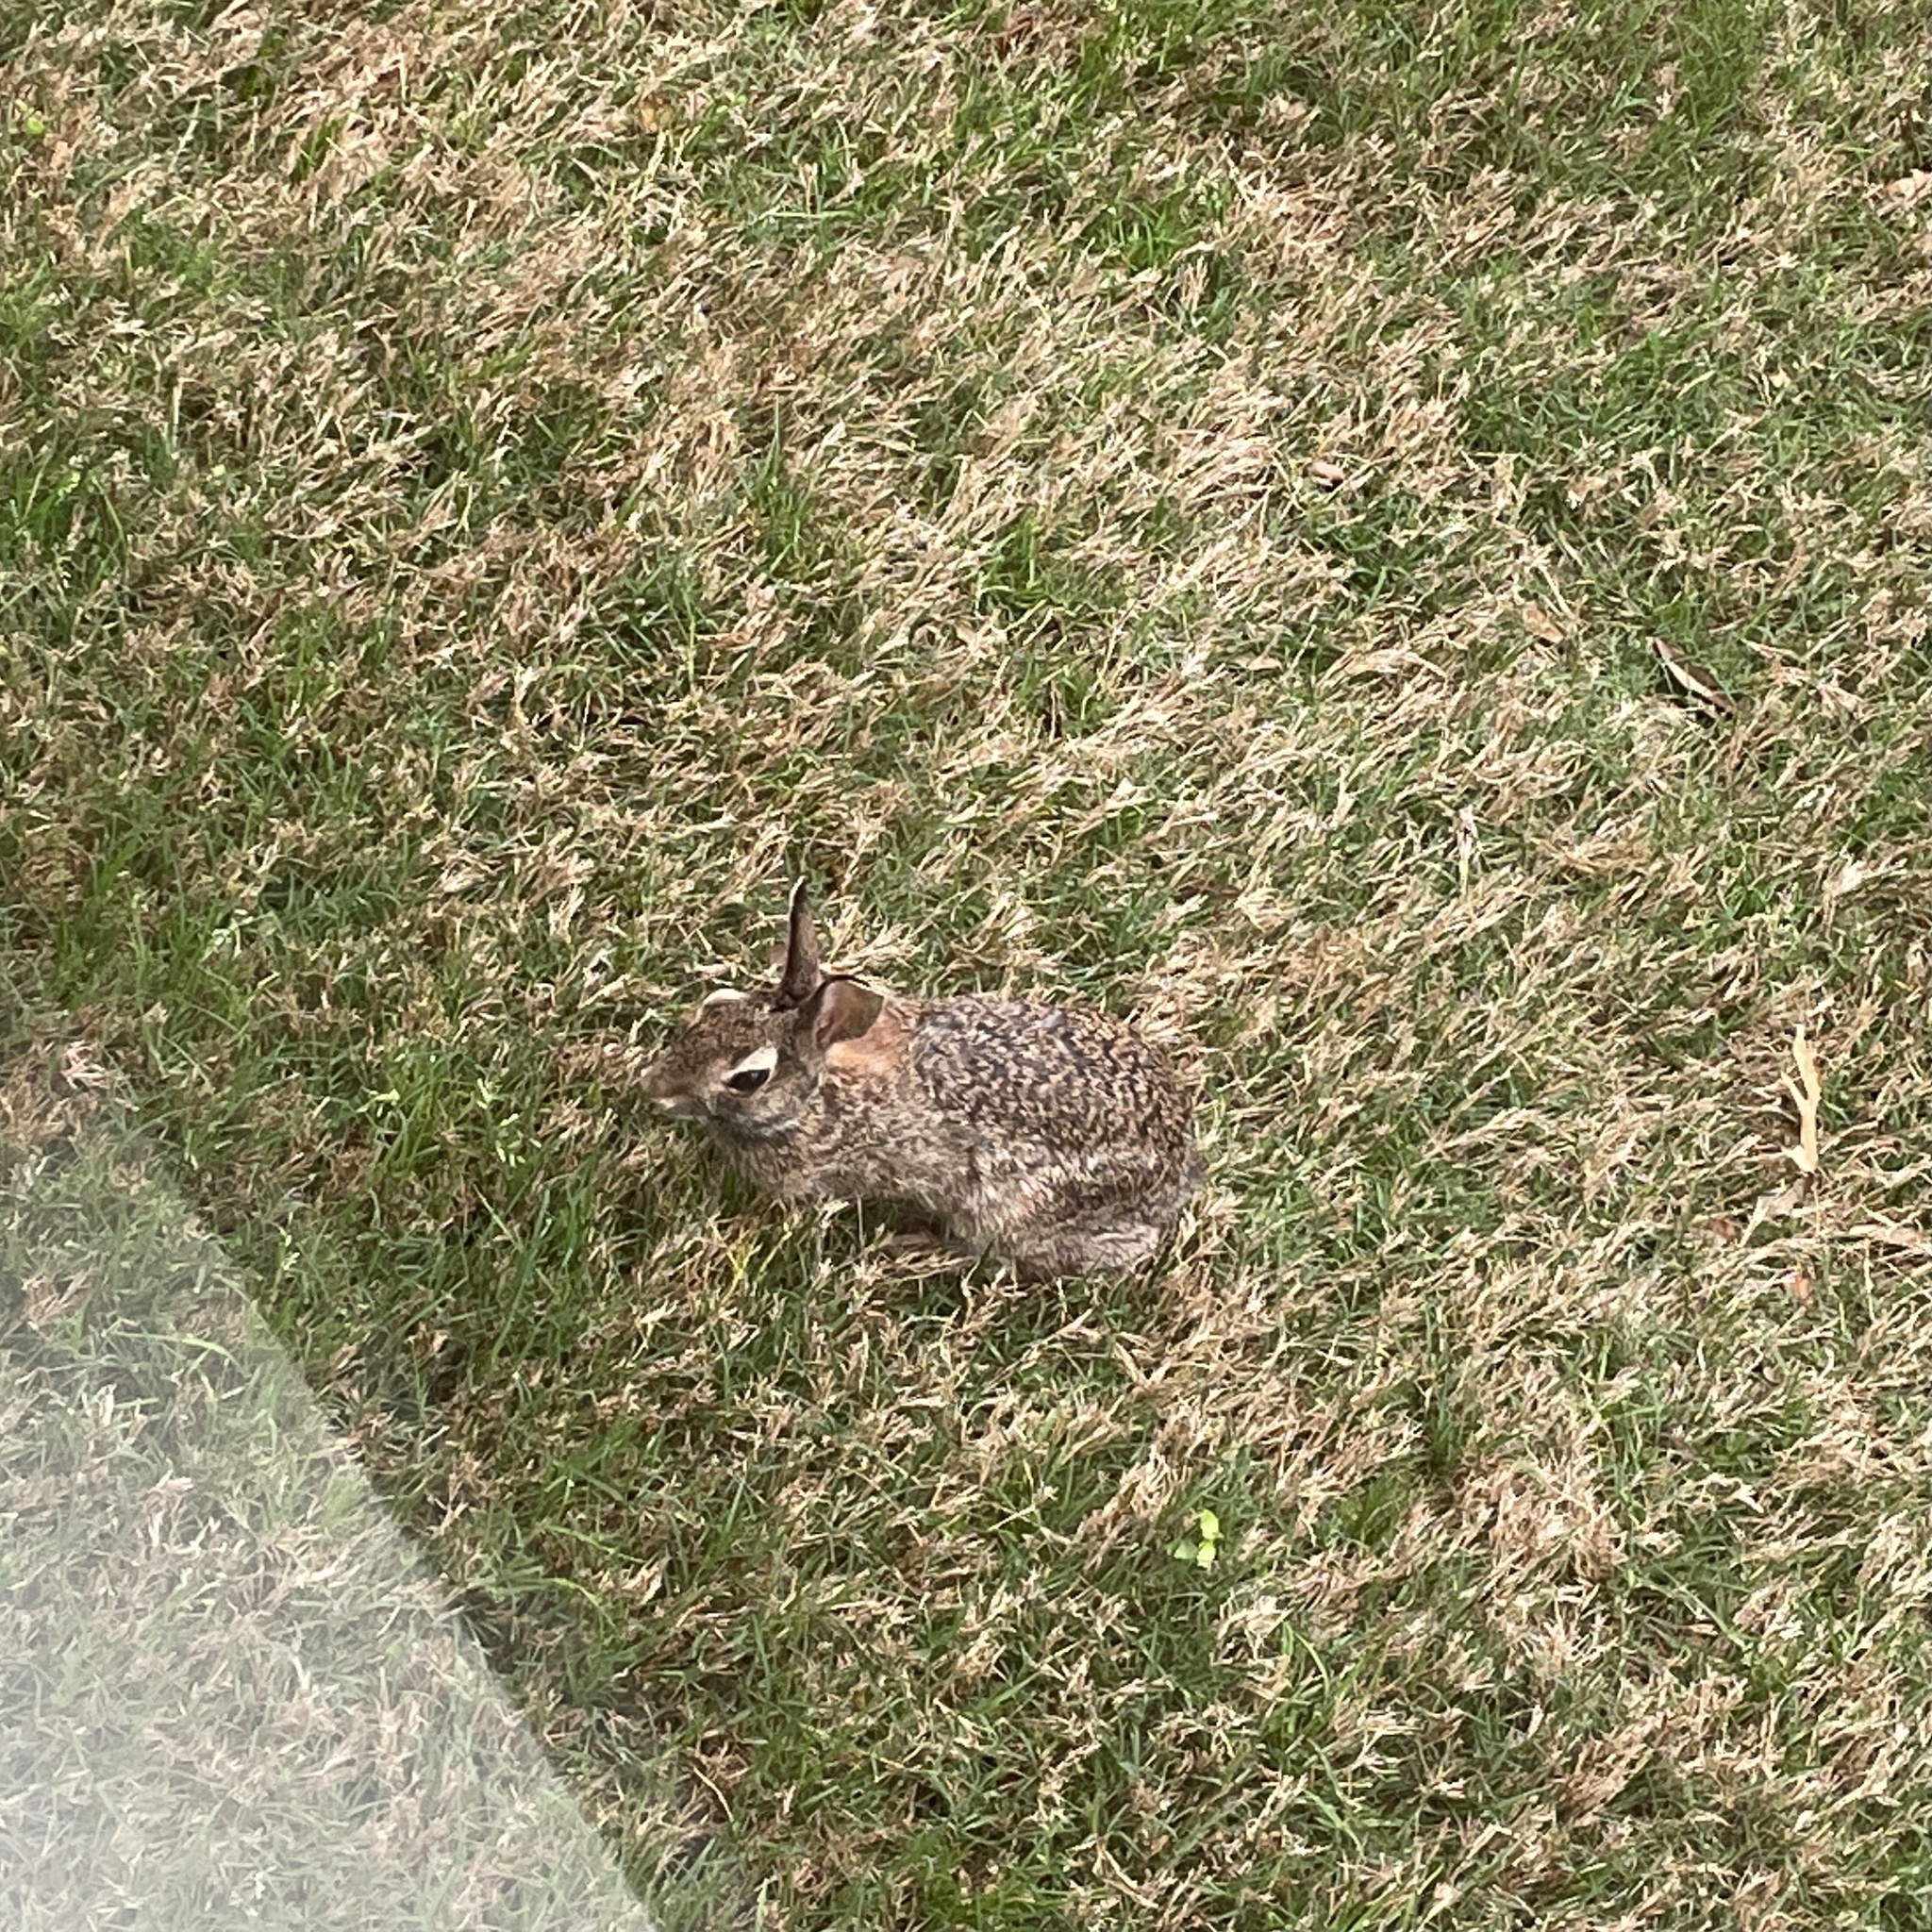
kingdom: Animalia
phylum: Chordata
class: Mammalia
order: Lagomorpha
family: Leporidae
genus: Sylvilagus
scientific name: Sylvilagus floridanus
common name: Eastern cottontail
